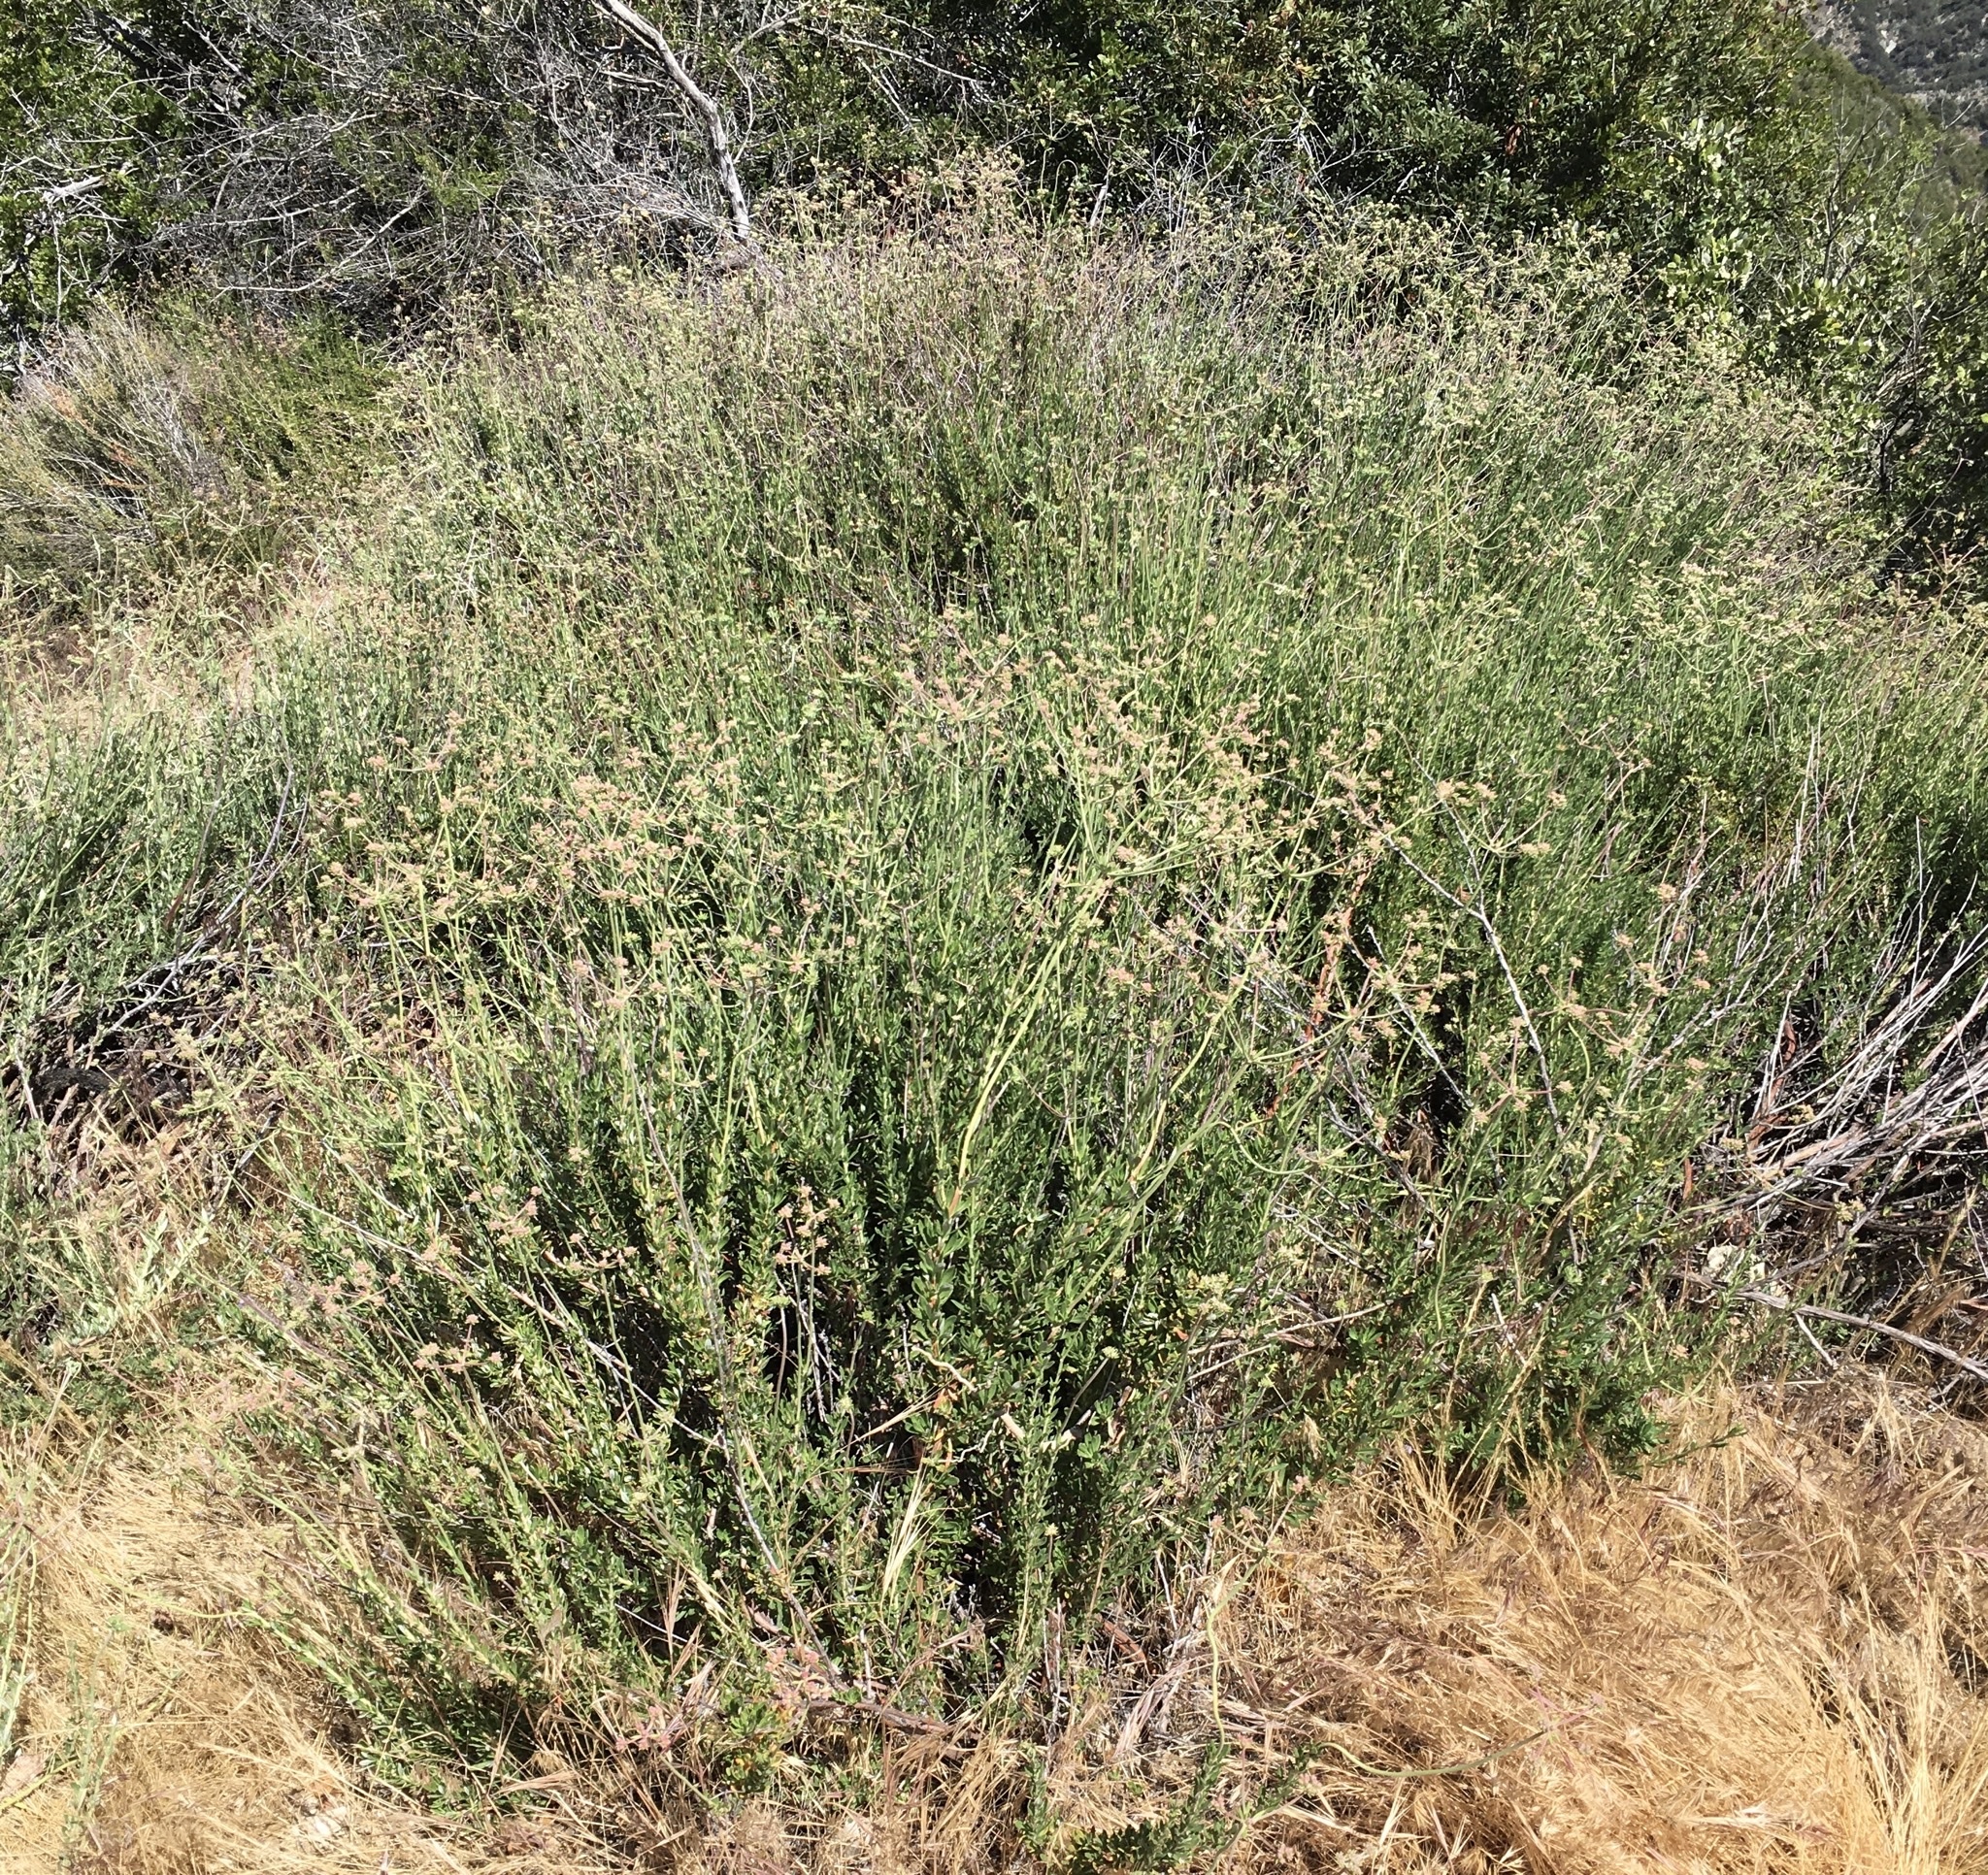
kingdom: Plantae
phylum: Tracheophyta
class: Magnoliopsida
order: Caryophyllales
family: Polygonaceae
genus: Eriogonum
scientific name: Eriogonum fasciculatum
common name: California wild buckwheat
